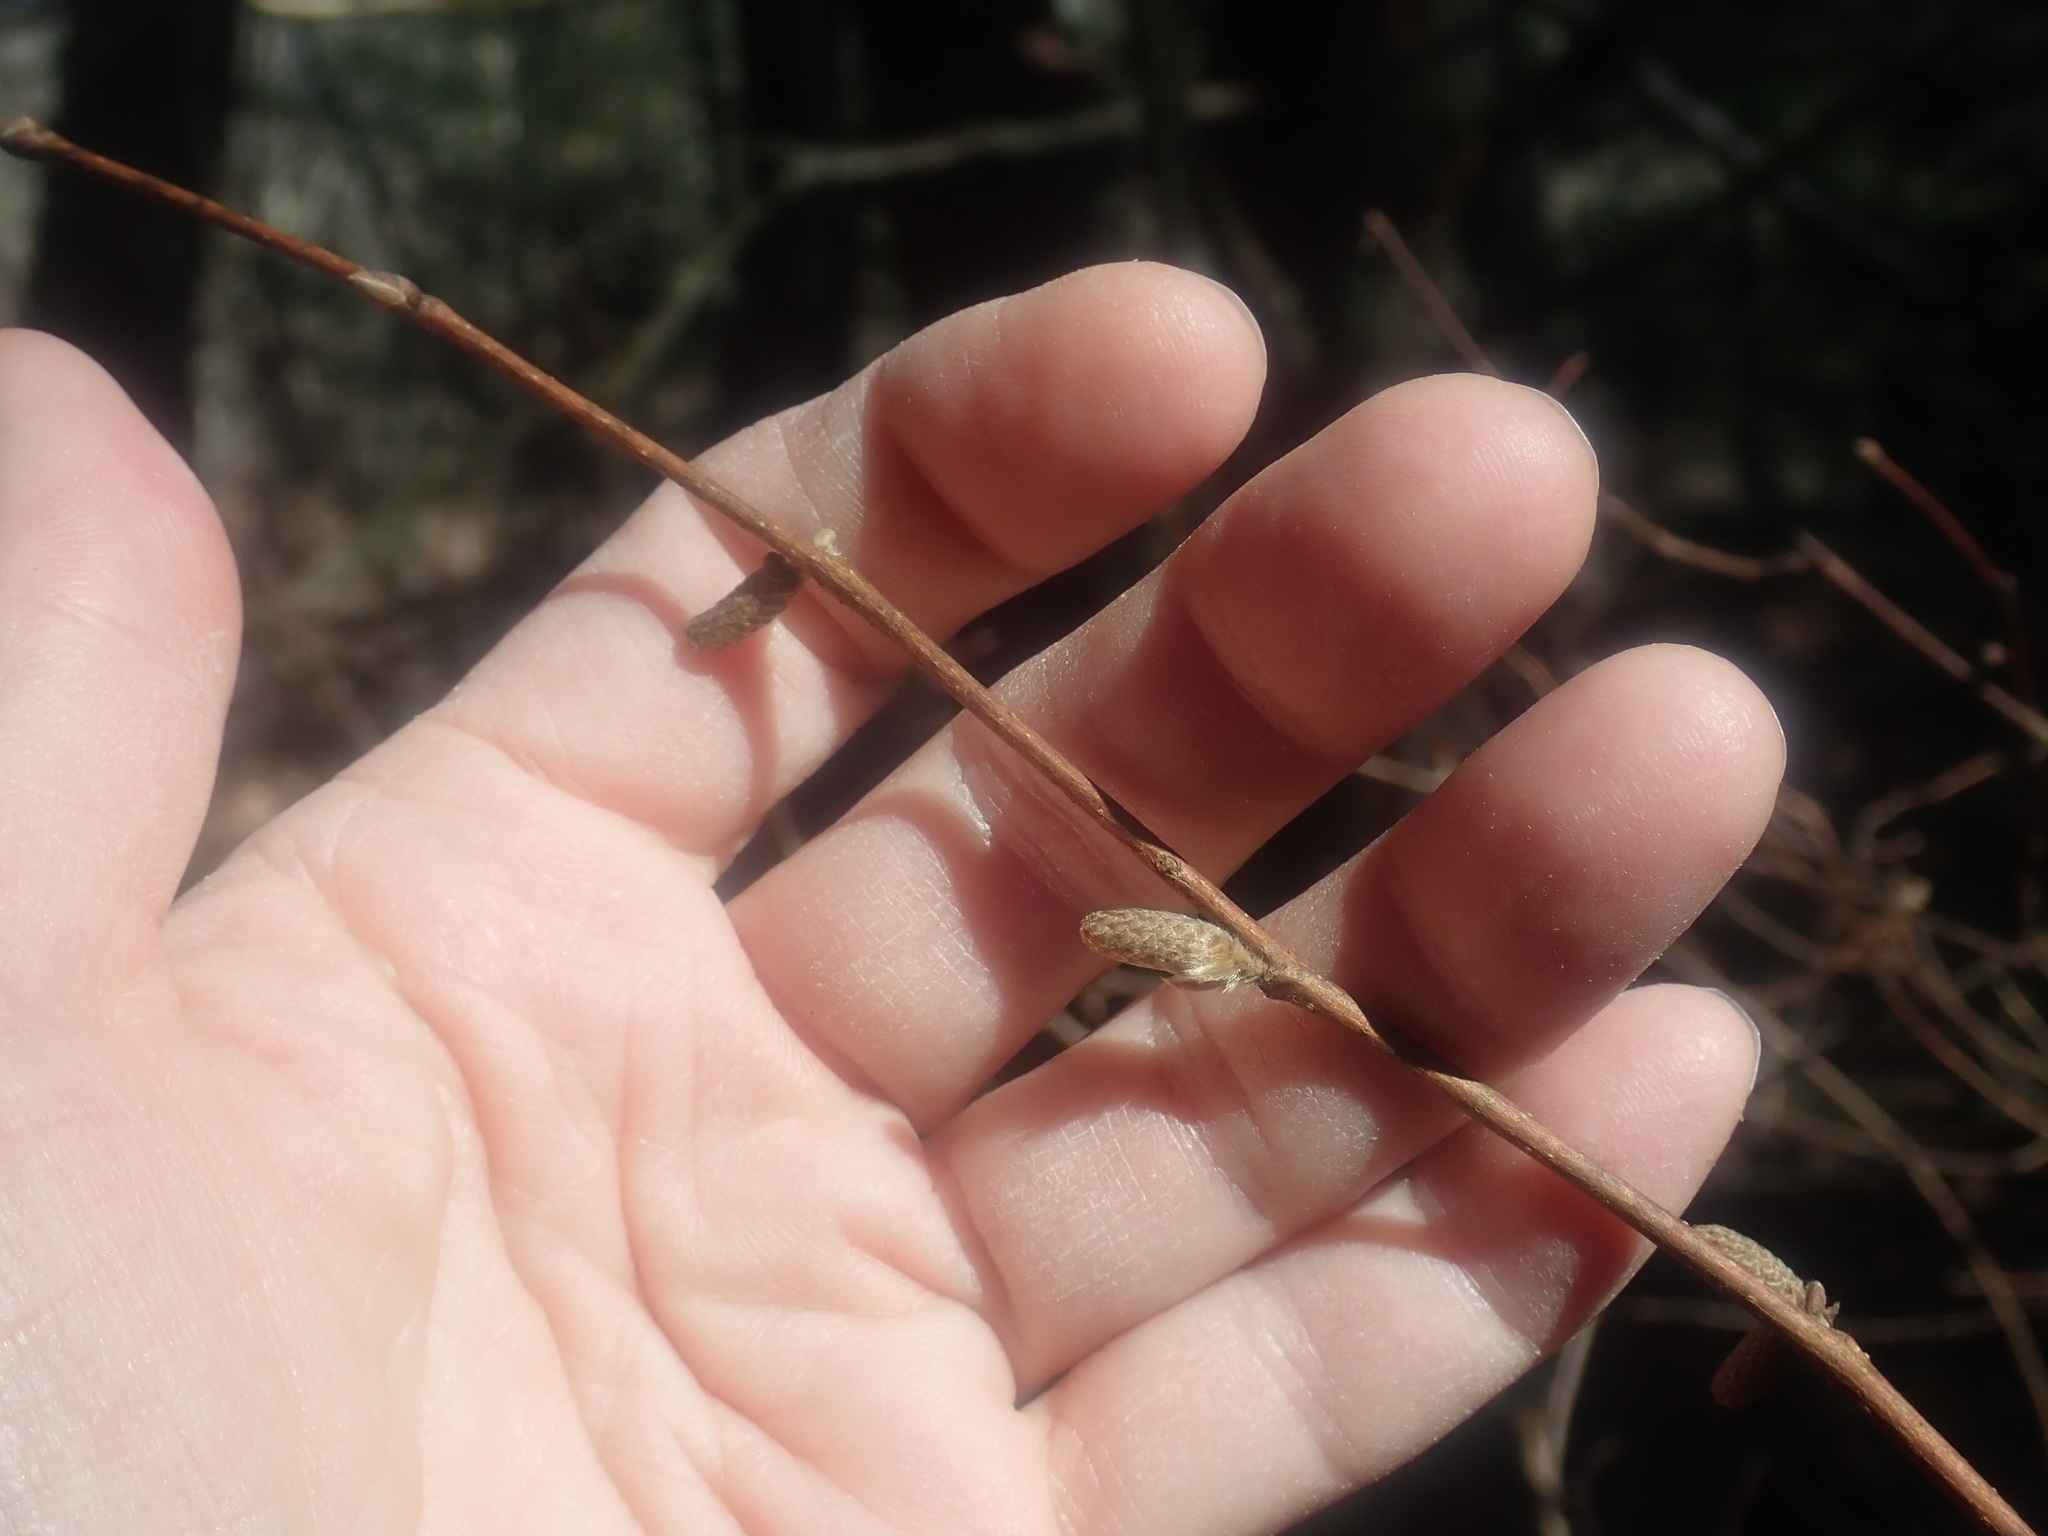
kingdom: Plantae
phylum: Tracheophyta
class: Magnoliopsida
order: Fagales
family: Betulaceae
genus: Corylus
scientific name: Corylus cornuta
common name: Beaked hazel
